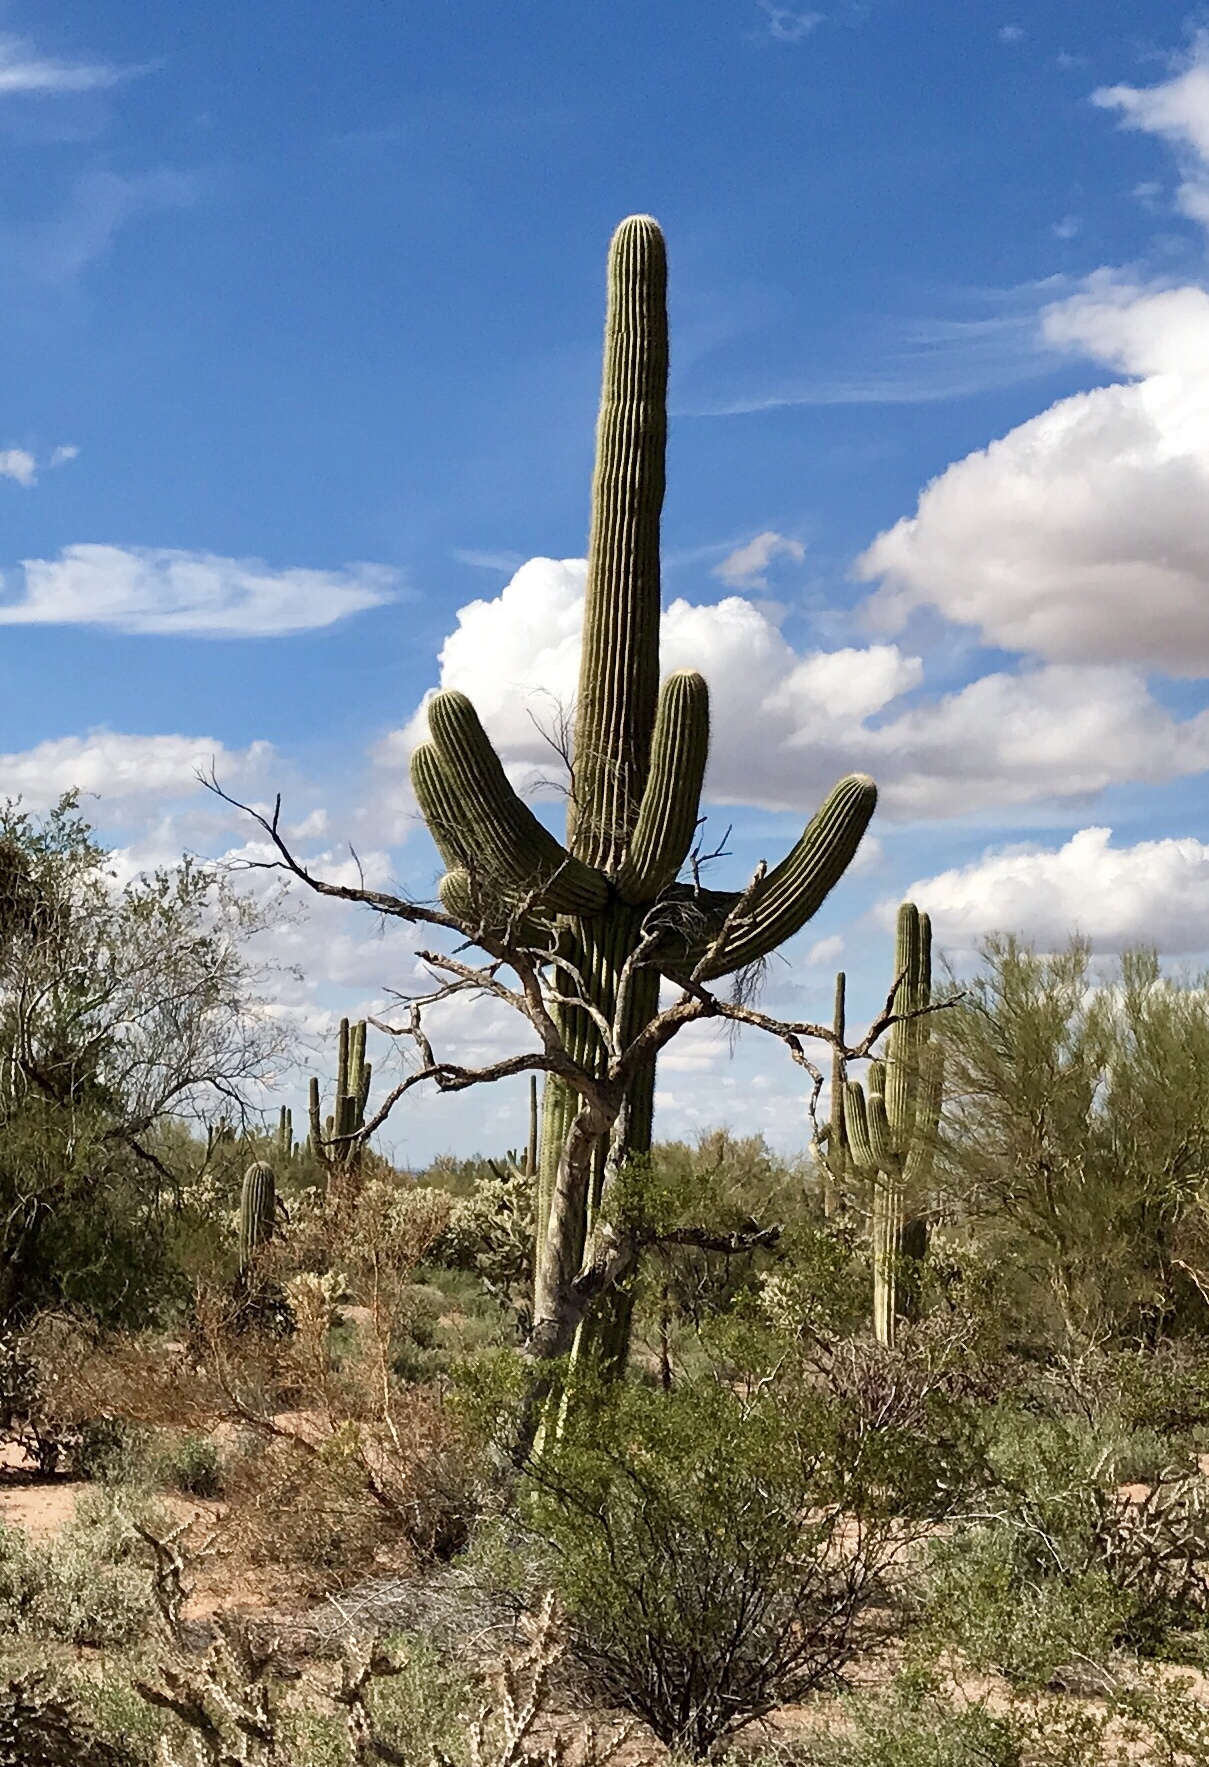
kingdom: Plantae
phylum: Tracheophyta
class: Magnoliopsida
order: Caryophyllales
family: Cactaceae
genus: Carnegiea
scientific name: Carnegiea gigantea
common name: Saguaro
